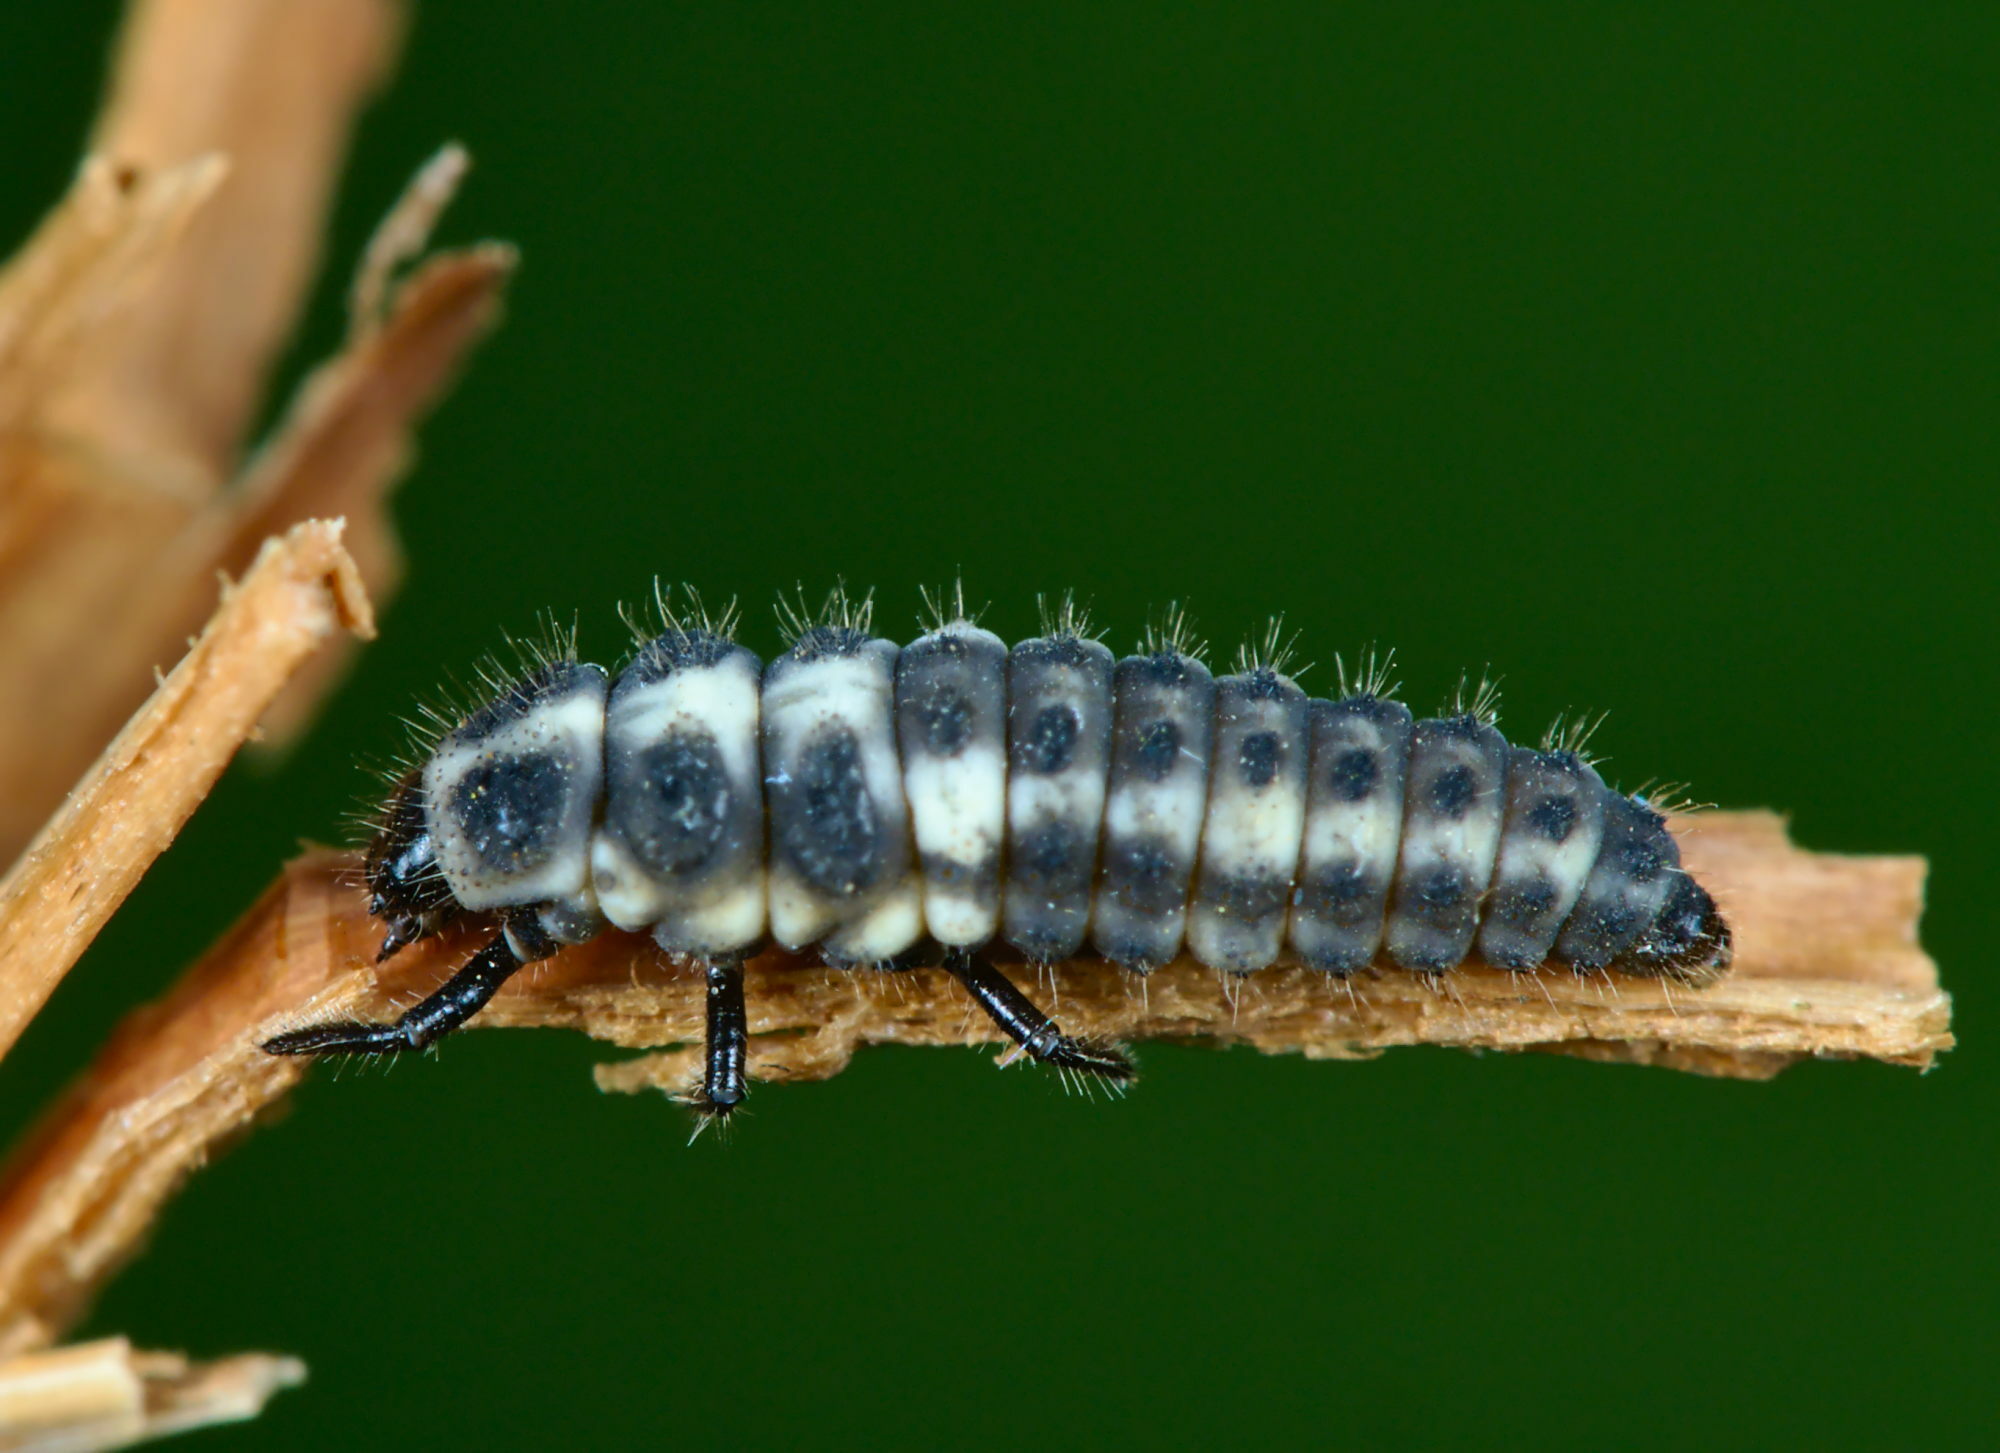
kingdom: Animalia
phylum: Arthropoda
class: Insecta
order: Coleoptera
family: Coccinellidae
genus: Coccinula
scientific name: Coccinula quatuordecimpustulata
